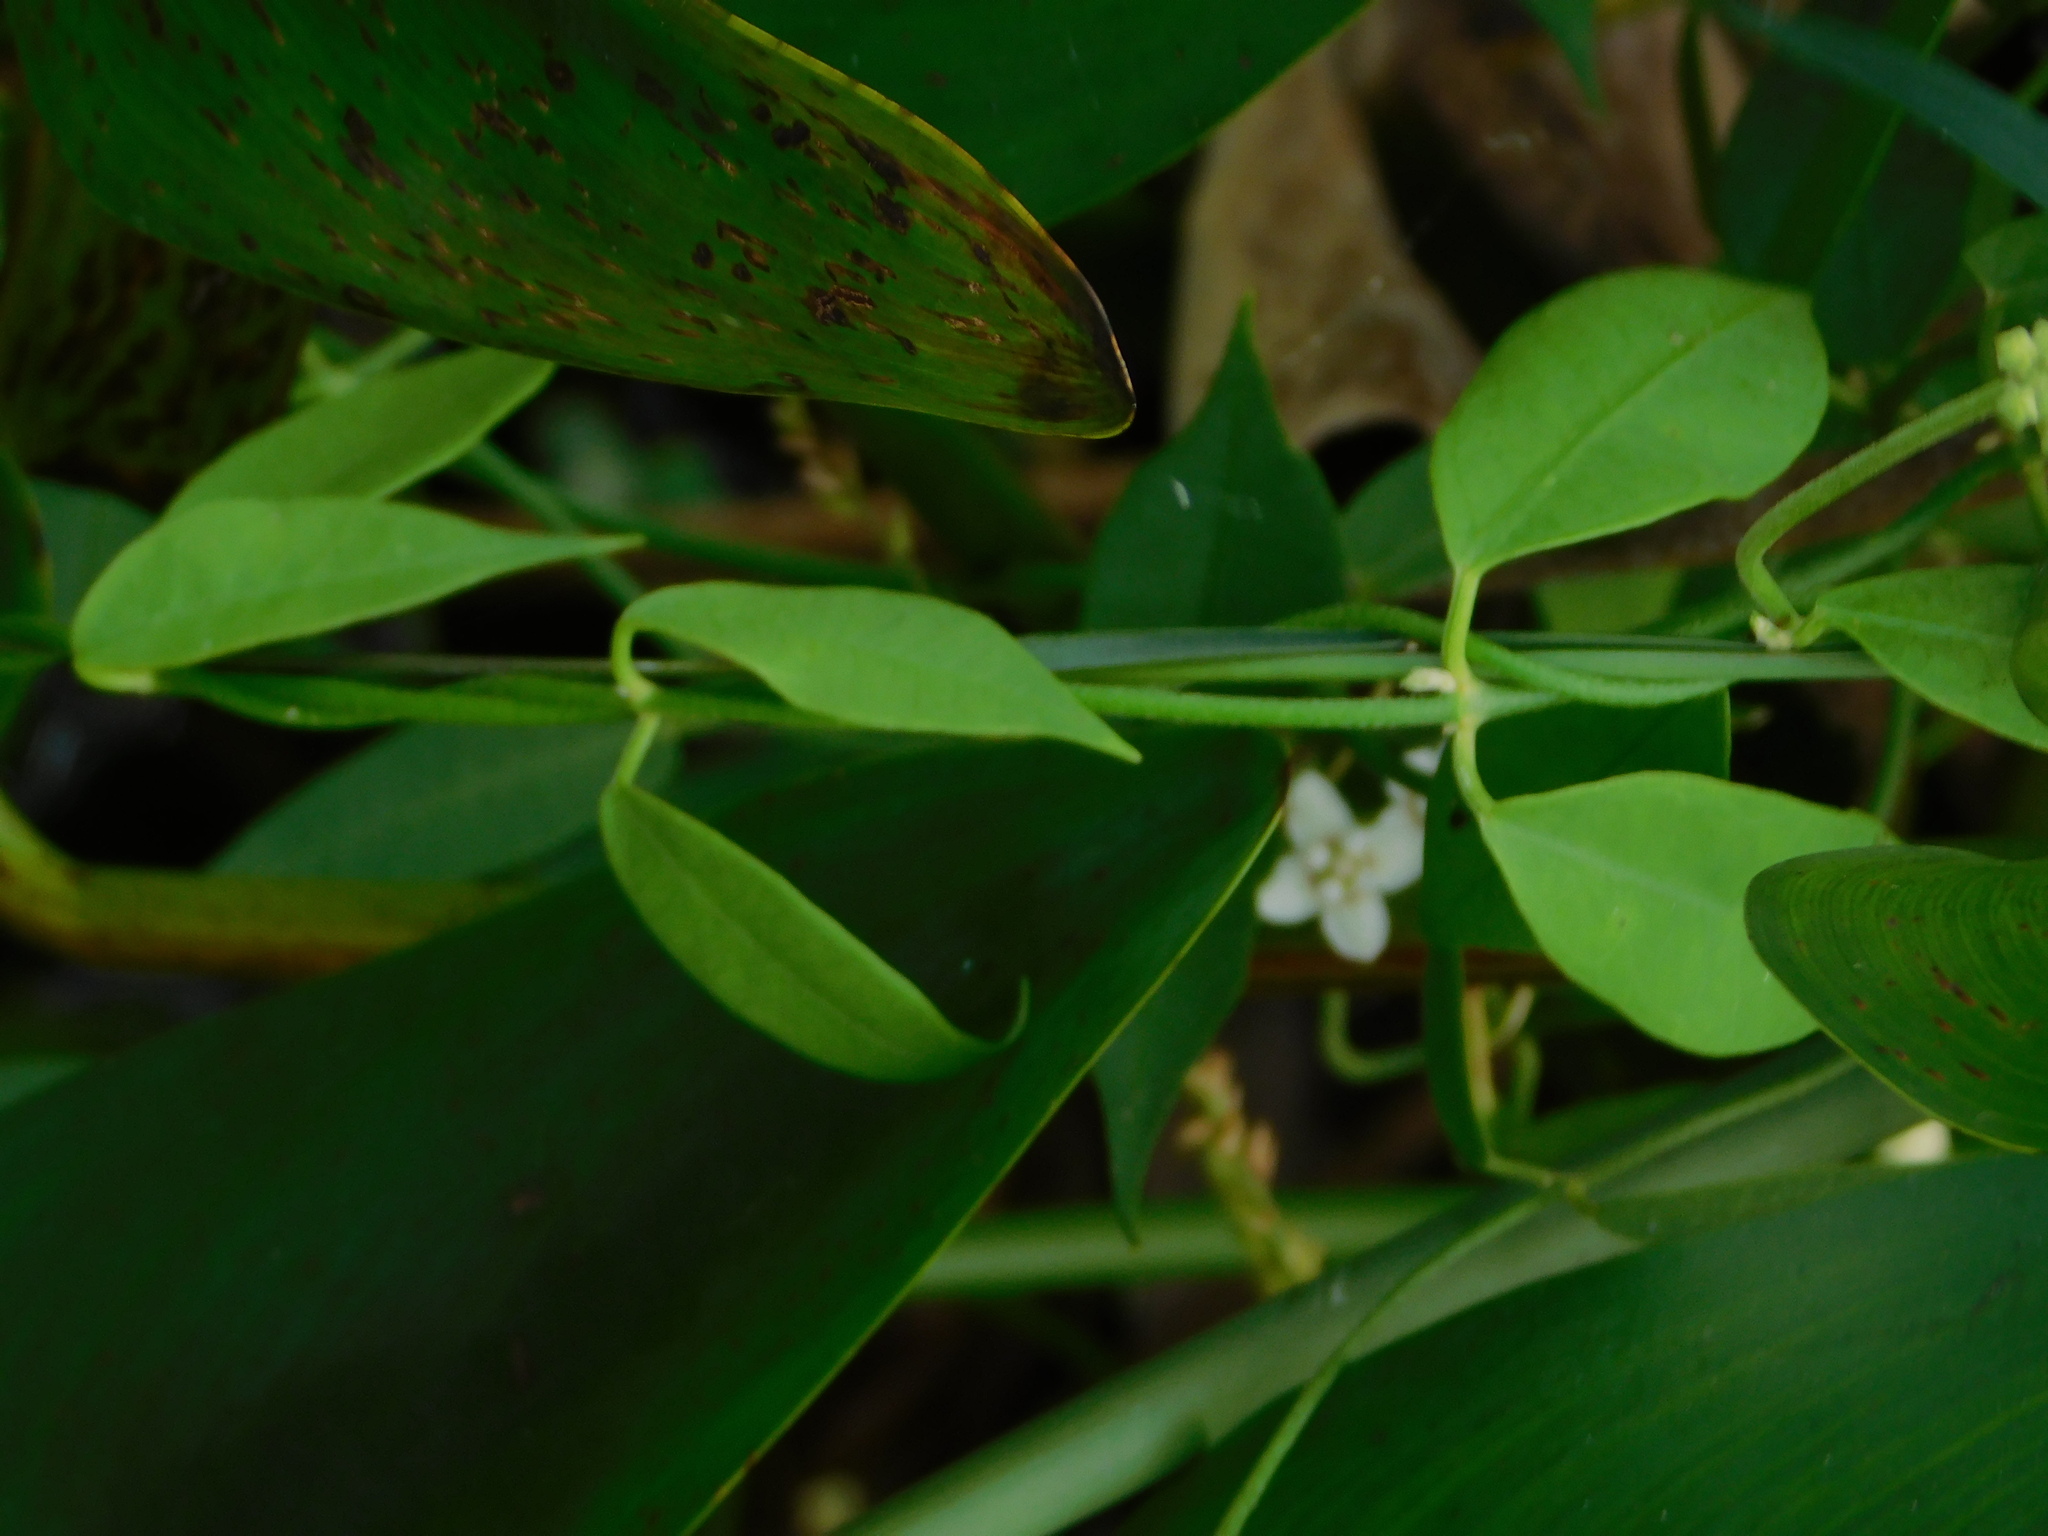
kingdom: Plantae
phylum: Tracheophyta
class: Magnoliopsida
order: Gentianales
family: Apocynaceae
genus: Funastrum
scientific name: Funastrum clausum
